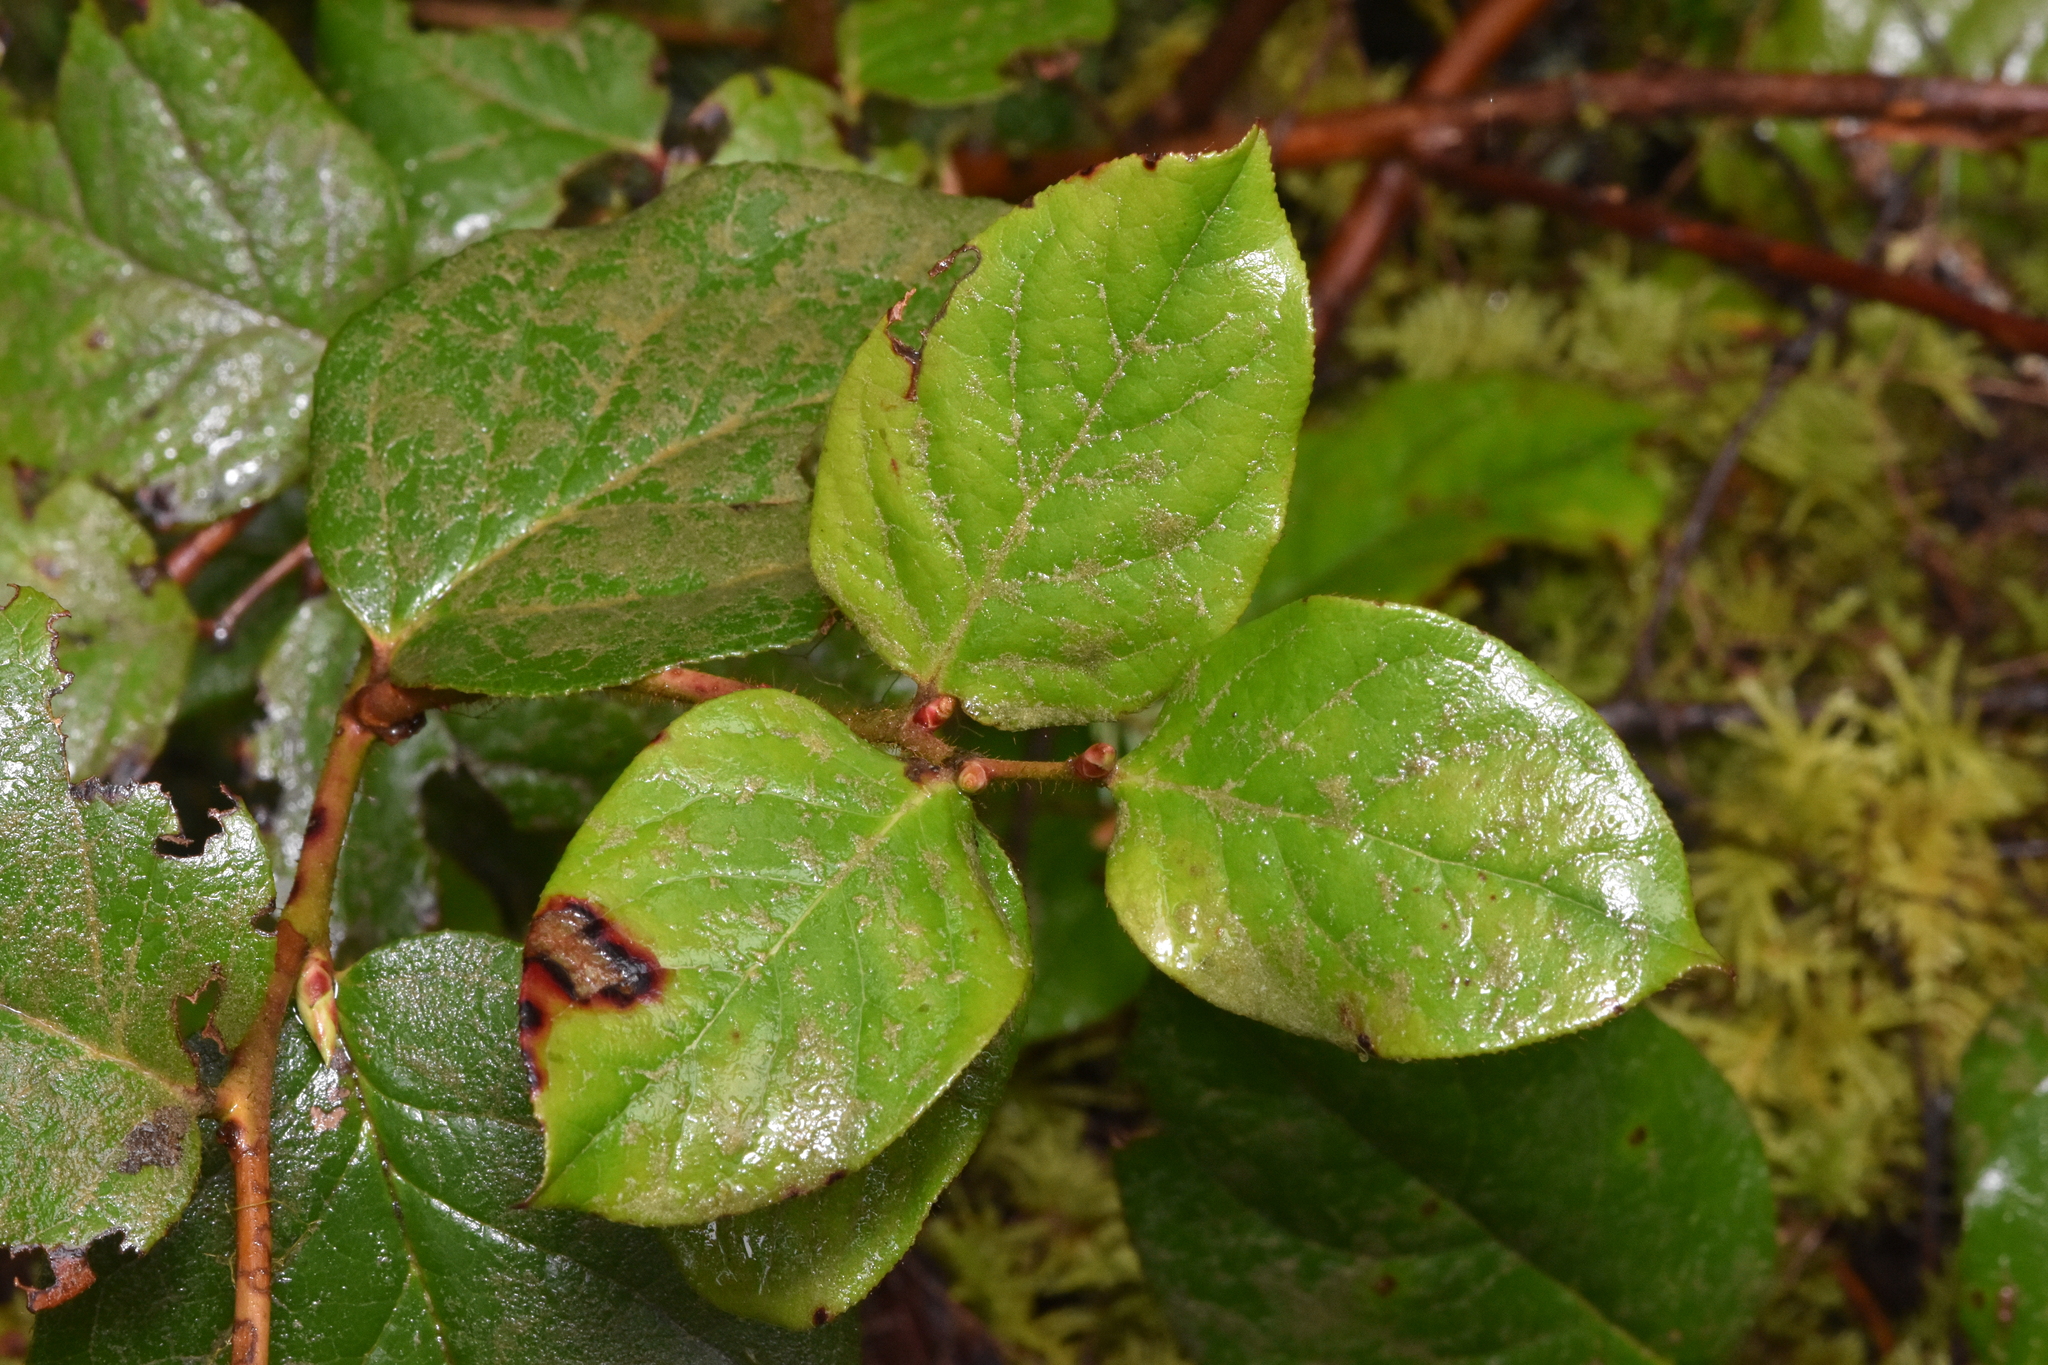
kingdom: Plantae
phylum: Tracheophyta
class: Magnoliopsida
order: Ericales
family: Ericaceae
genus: Gaultheria
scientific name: Gaultheria shallon
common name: Shallon
